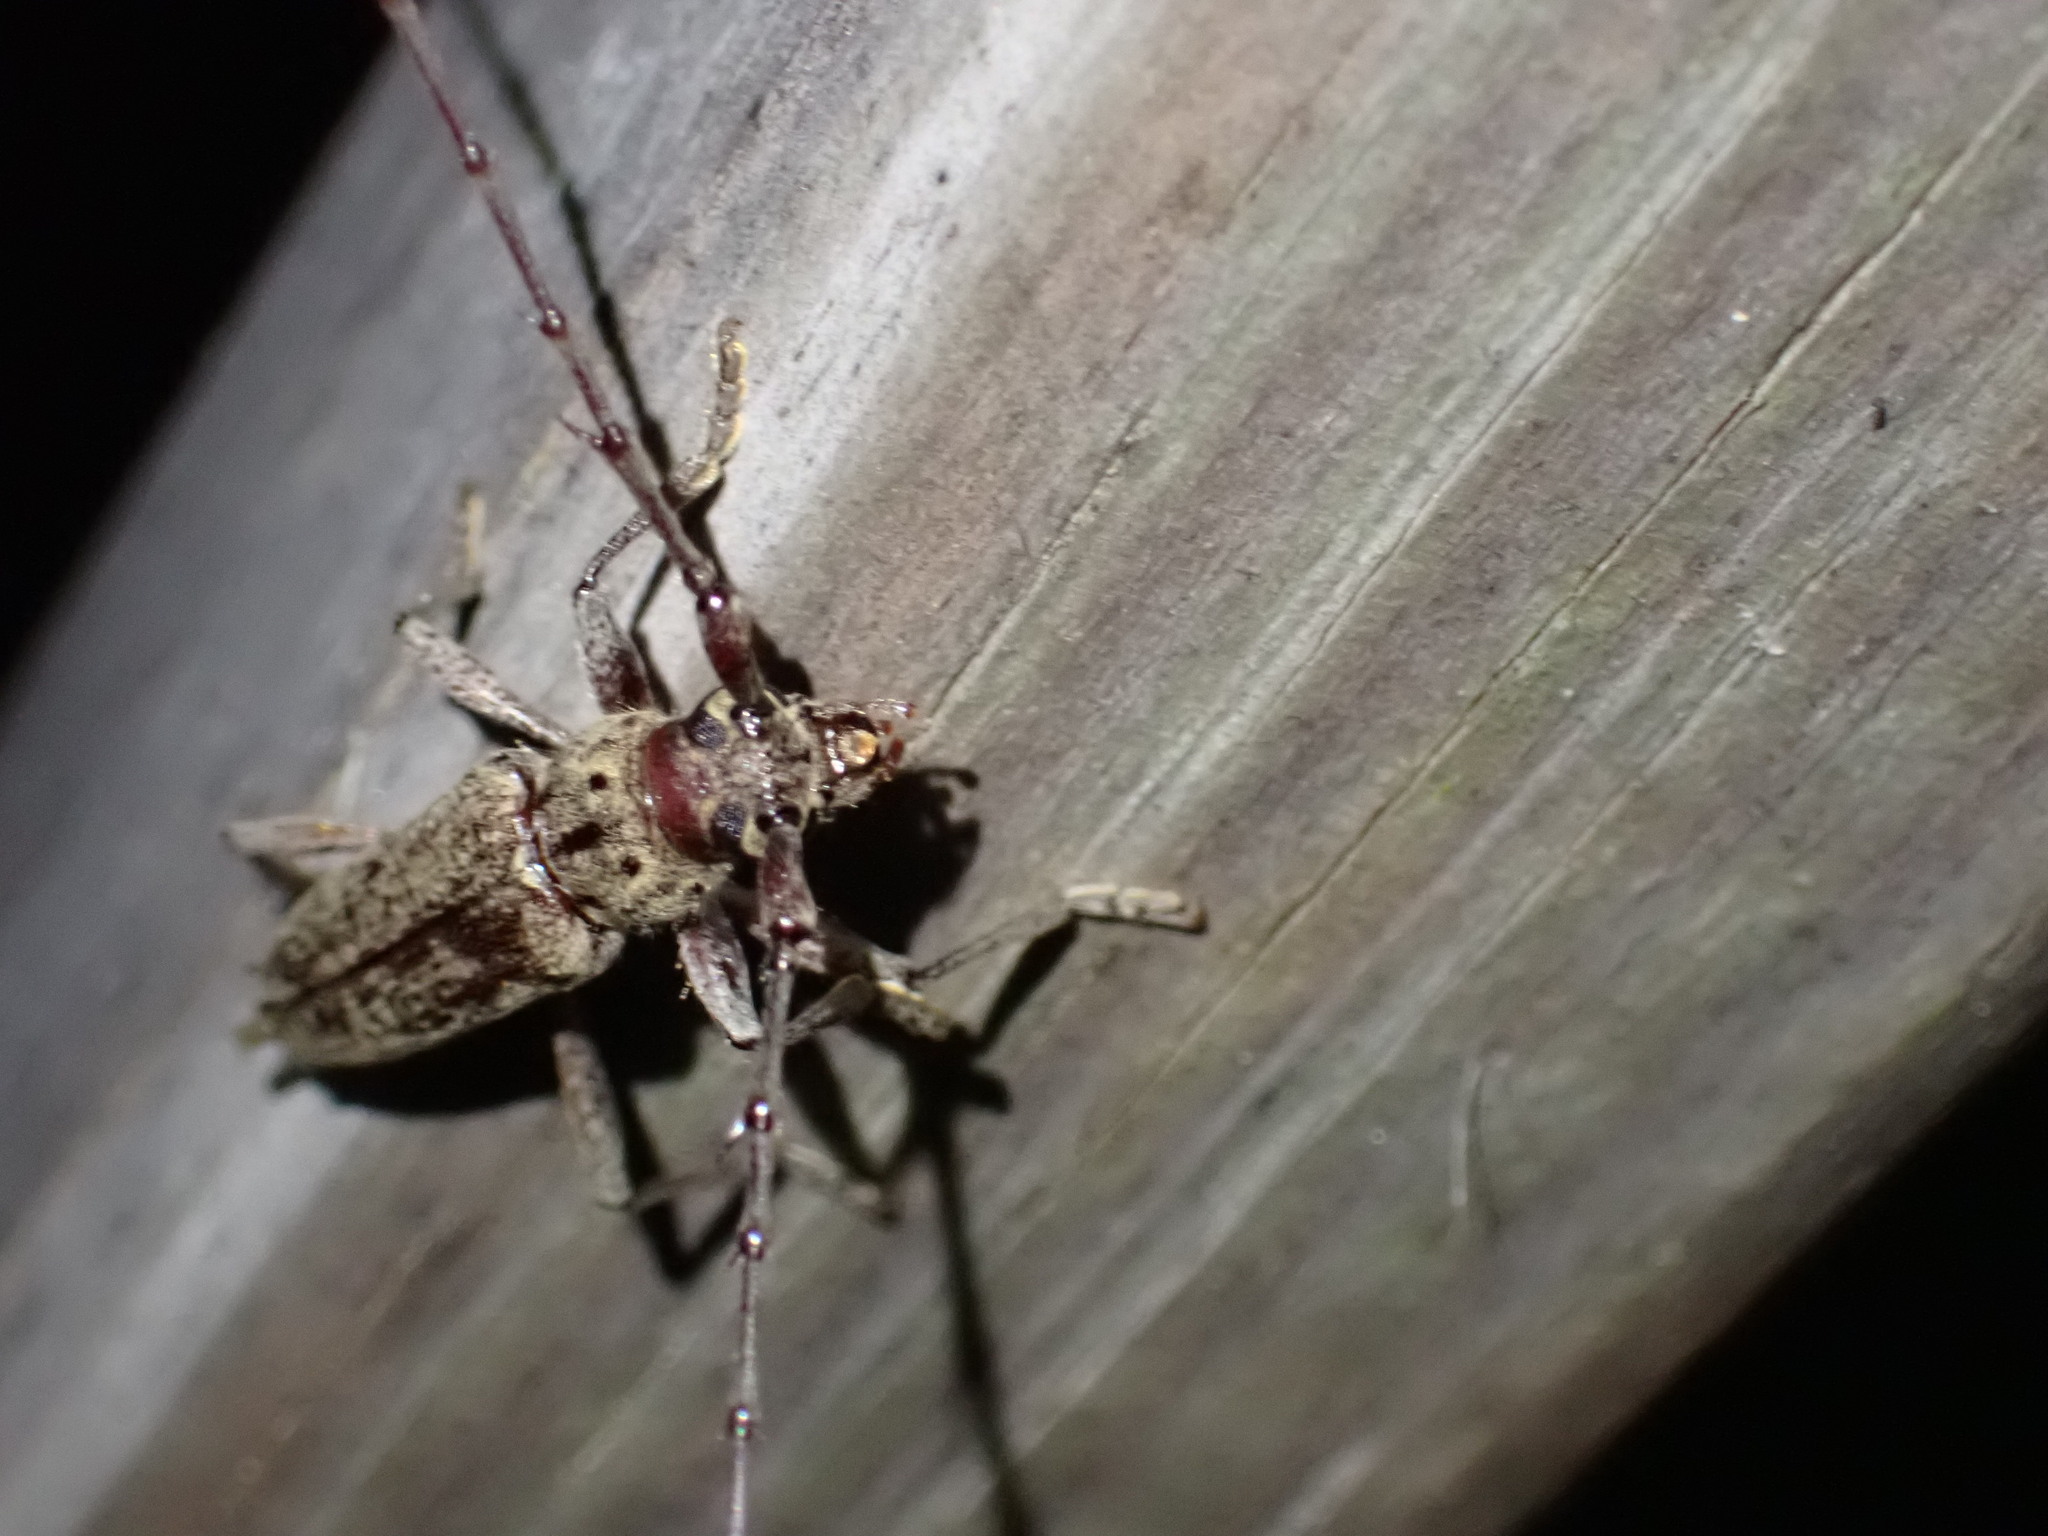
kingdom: Animalia
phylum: Arthropoda
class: Insecta
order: Coleoptera
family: Cerambycidae
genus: Elaphidion
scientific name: Elaphidion mucronatum
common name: Spined oak borer
